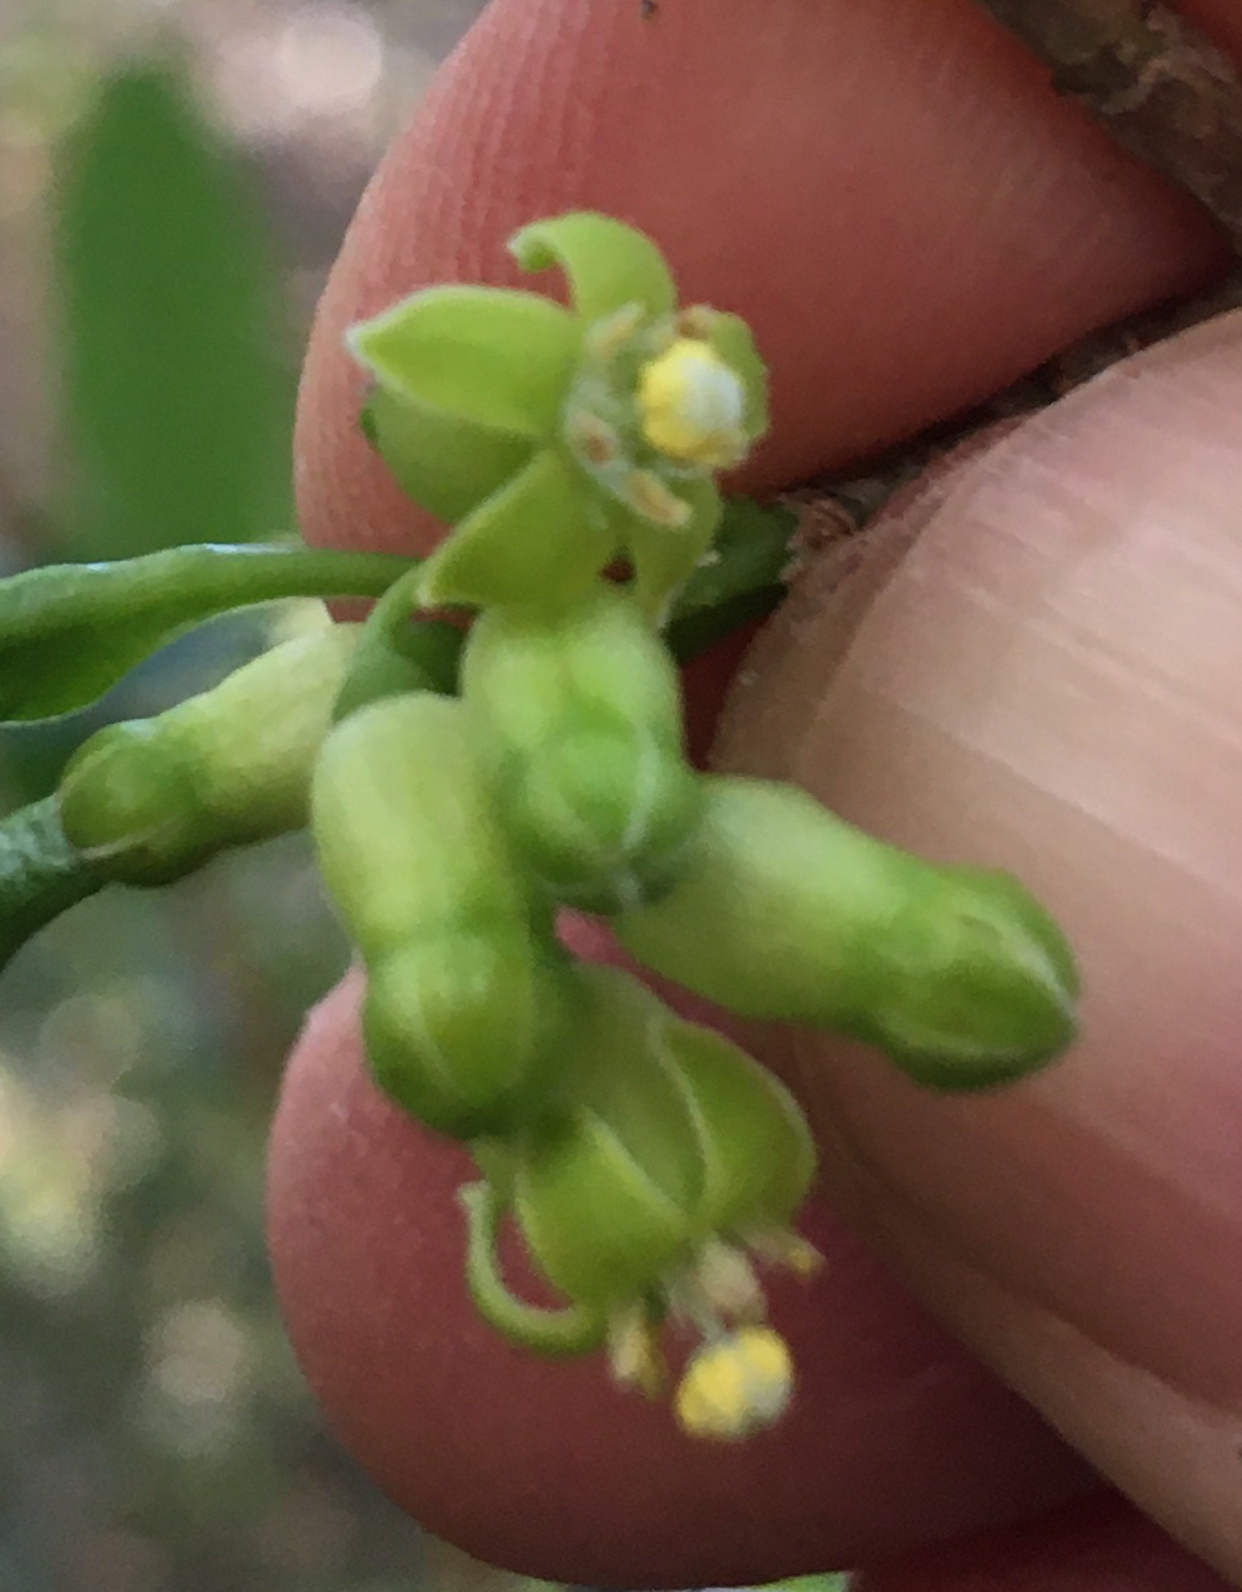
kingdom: Plantae
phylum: Tracheophyta
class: Magnoliopsida
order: Gentianales
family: Rubiaceae
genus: Canthium
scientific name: Canthium inerme
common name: Unarmed turkey-berry
